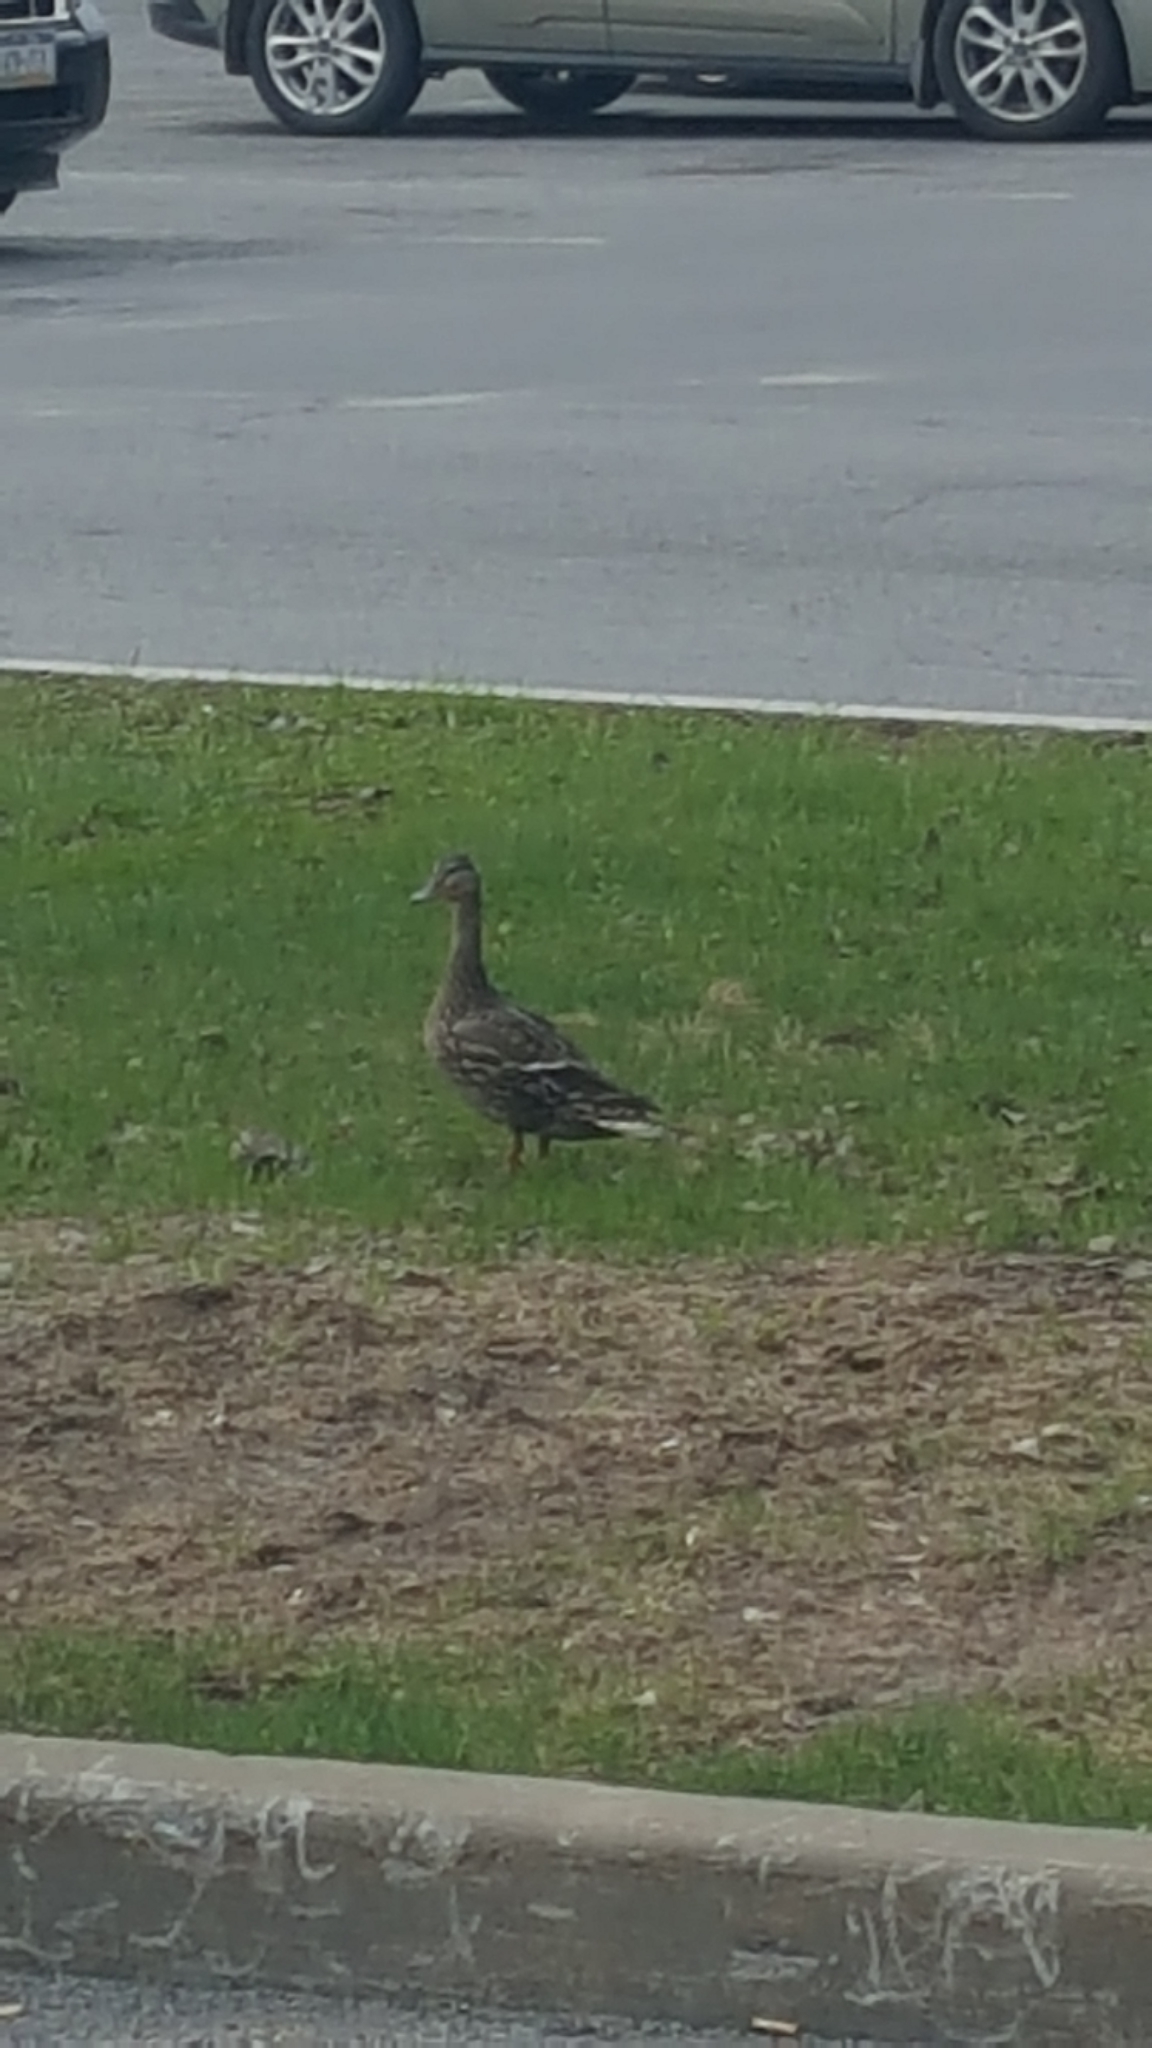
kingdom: Animalia
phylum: Chordata
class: Aves
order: Anseriformes
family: Anatidae
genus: Anas
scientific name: Anas platyrhynchos
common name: Mallard
